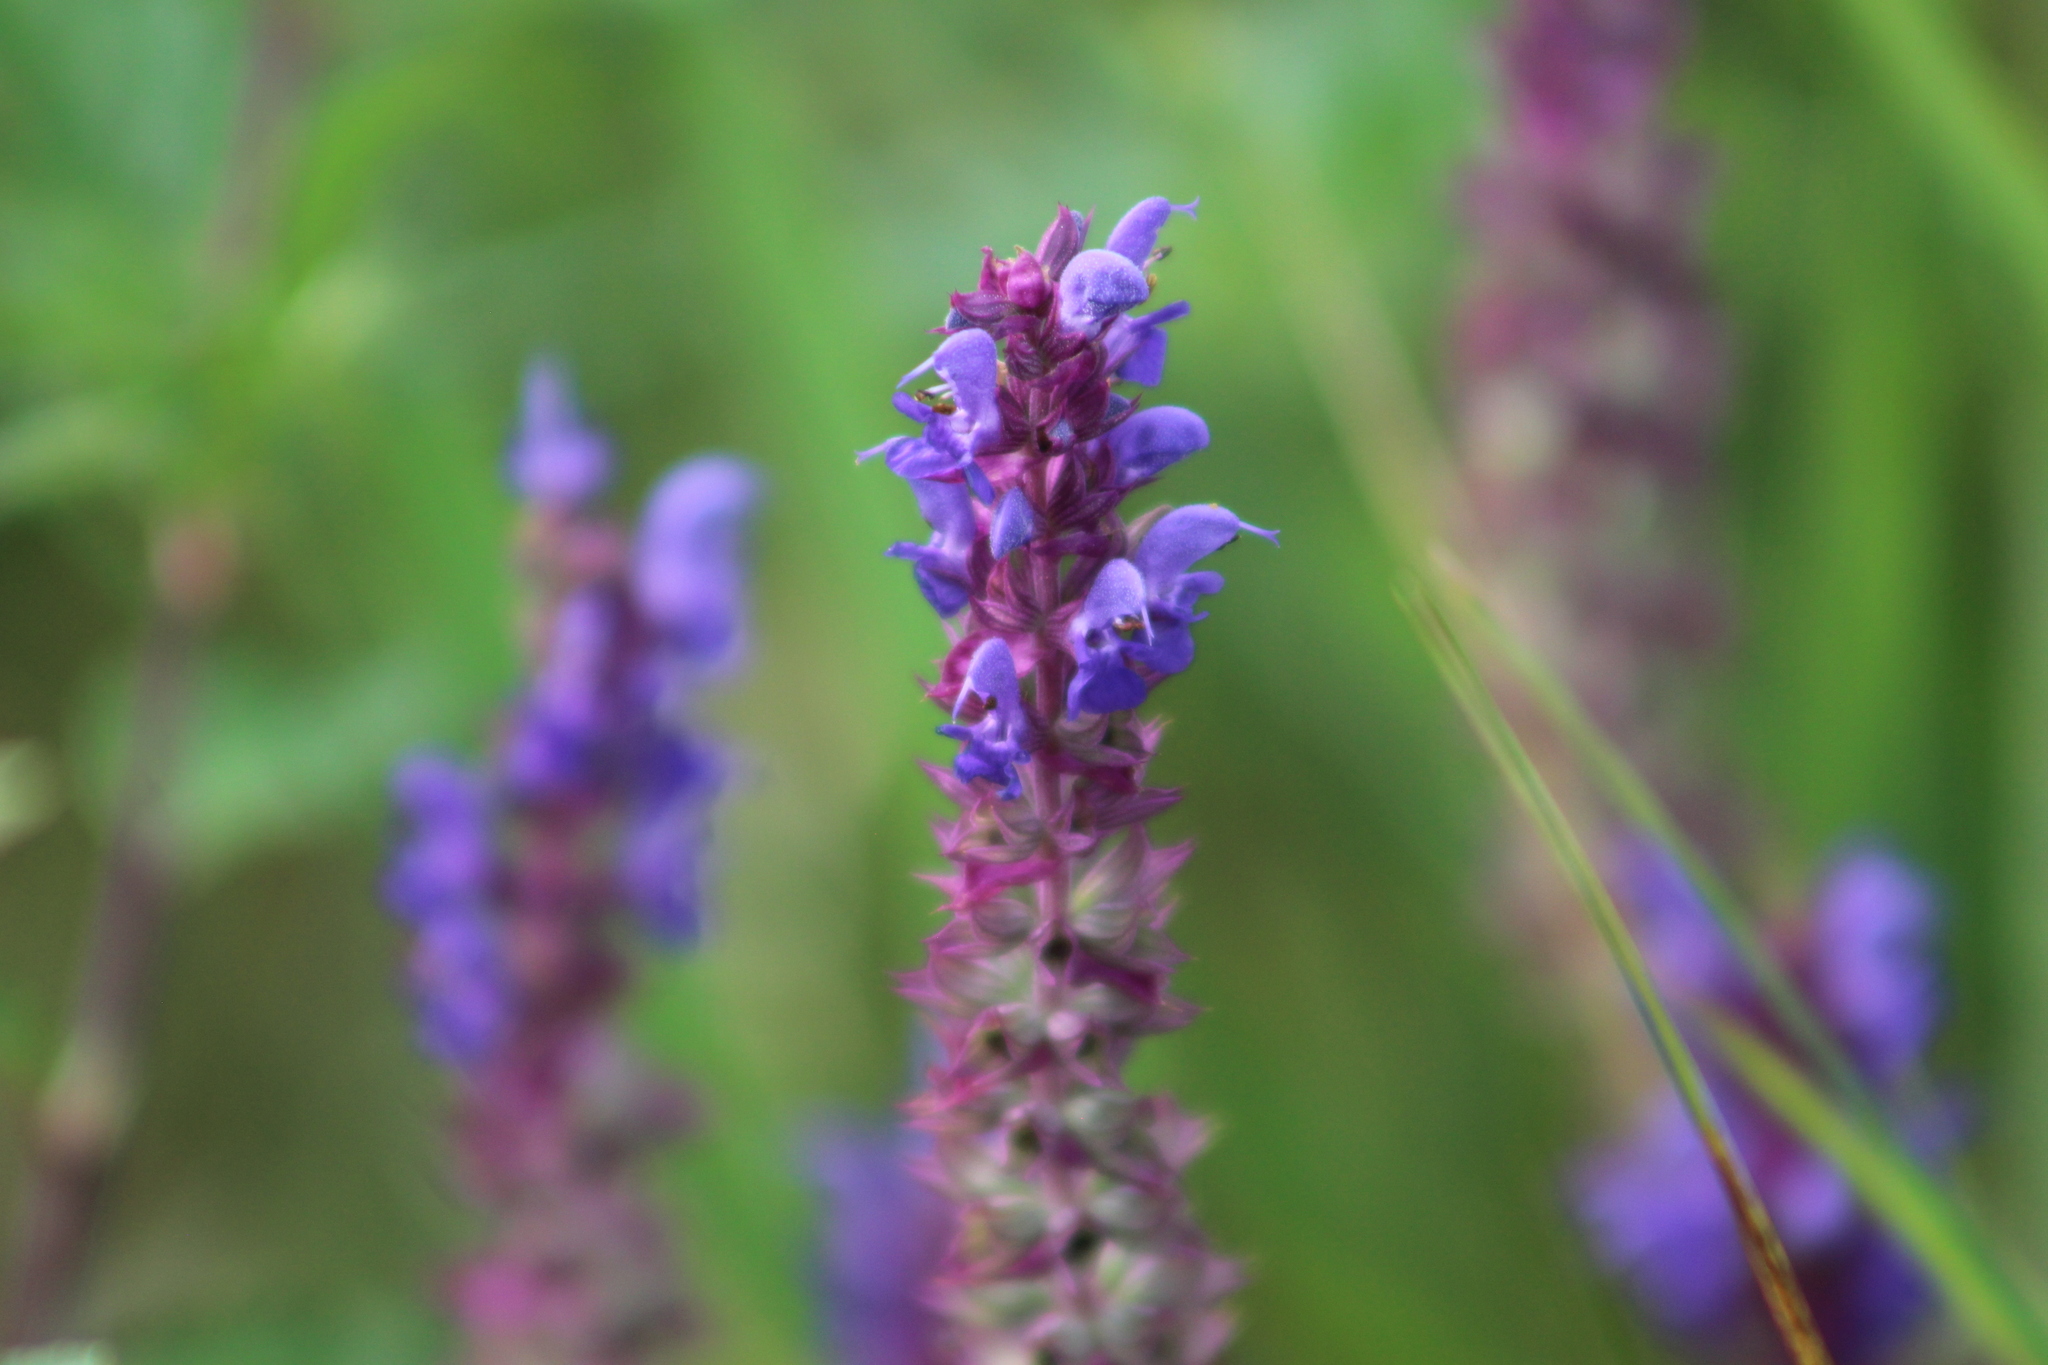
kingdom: Plantae
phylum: Tracheophyta
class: Magnoliopsida
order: Lamiales
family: Lamiaceae
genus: Salvia
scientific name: Salvia nemorosa
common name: Balkan clary
